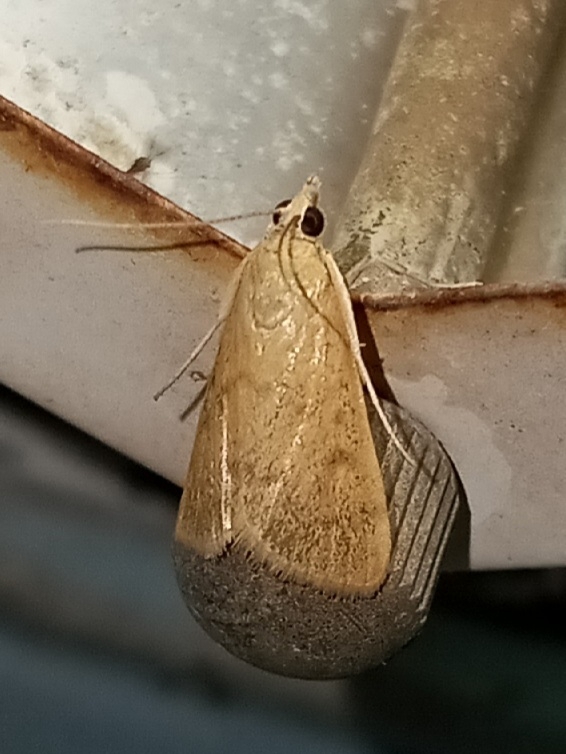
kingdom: Animalia
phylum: Arthropoda
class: Insecta
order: Lepidoptera
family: Crambidae
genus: Achyra
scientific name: Achyra rantalis
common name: Garden webworm
